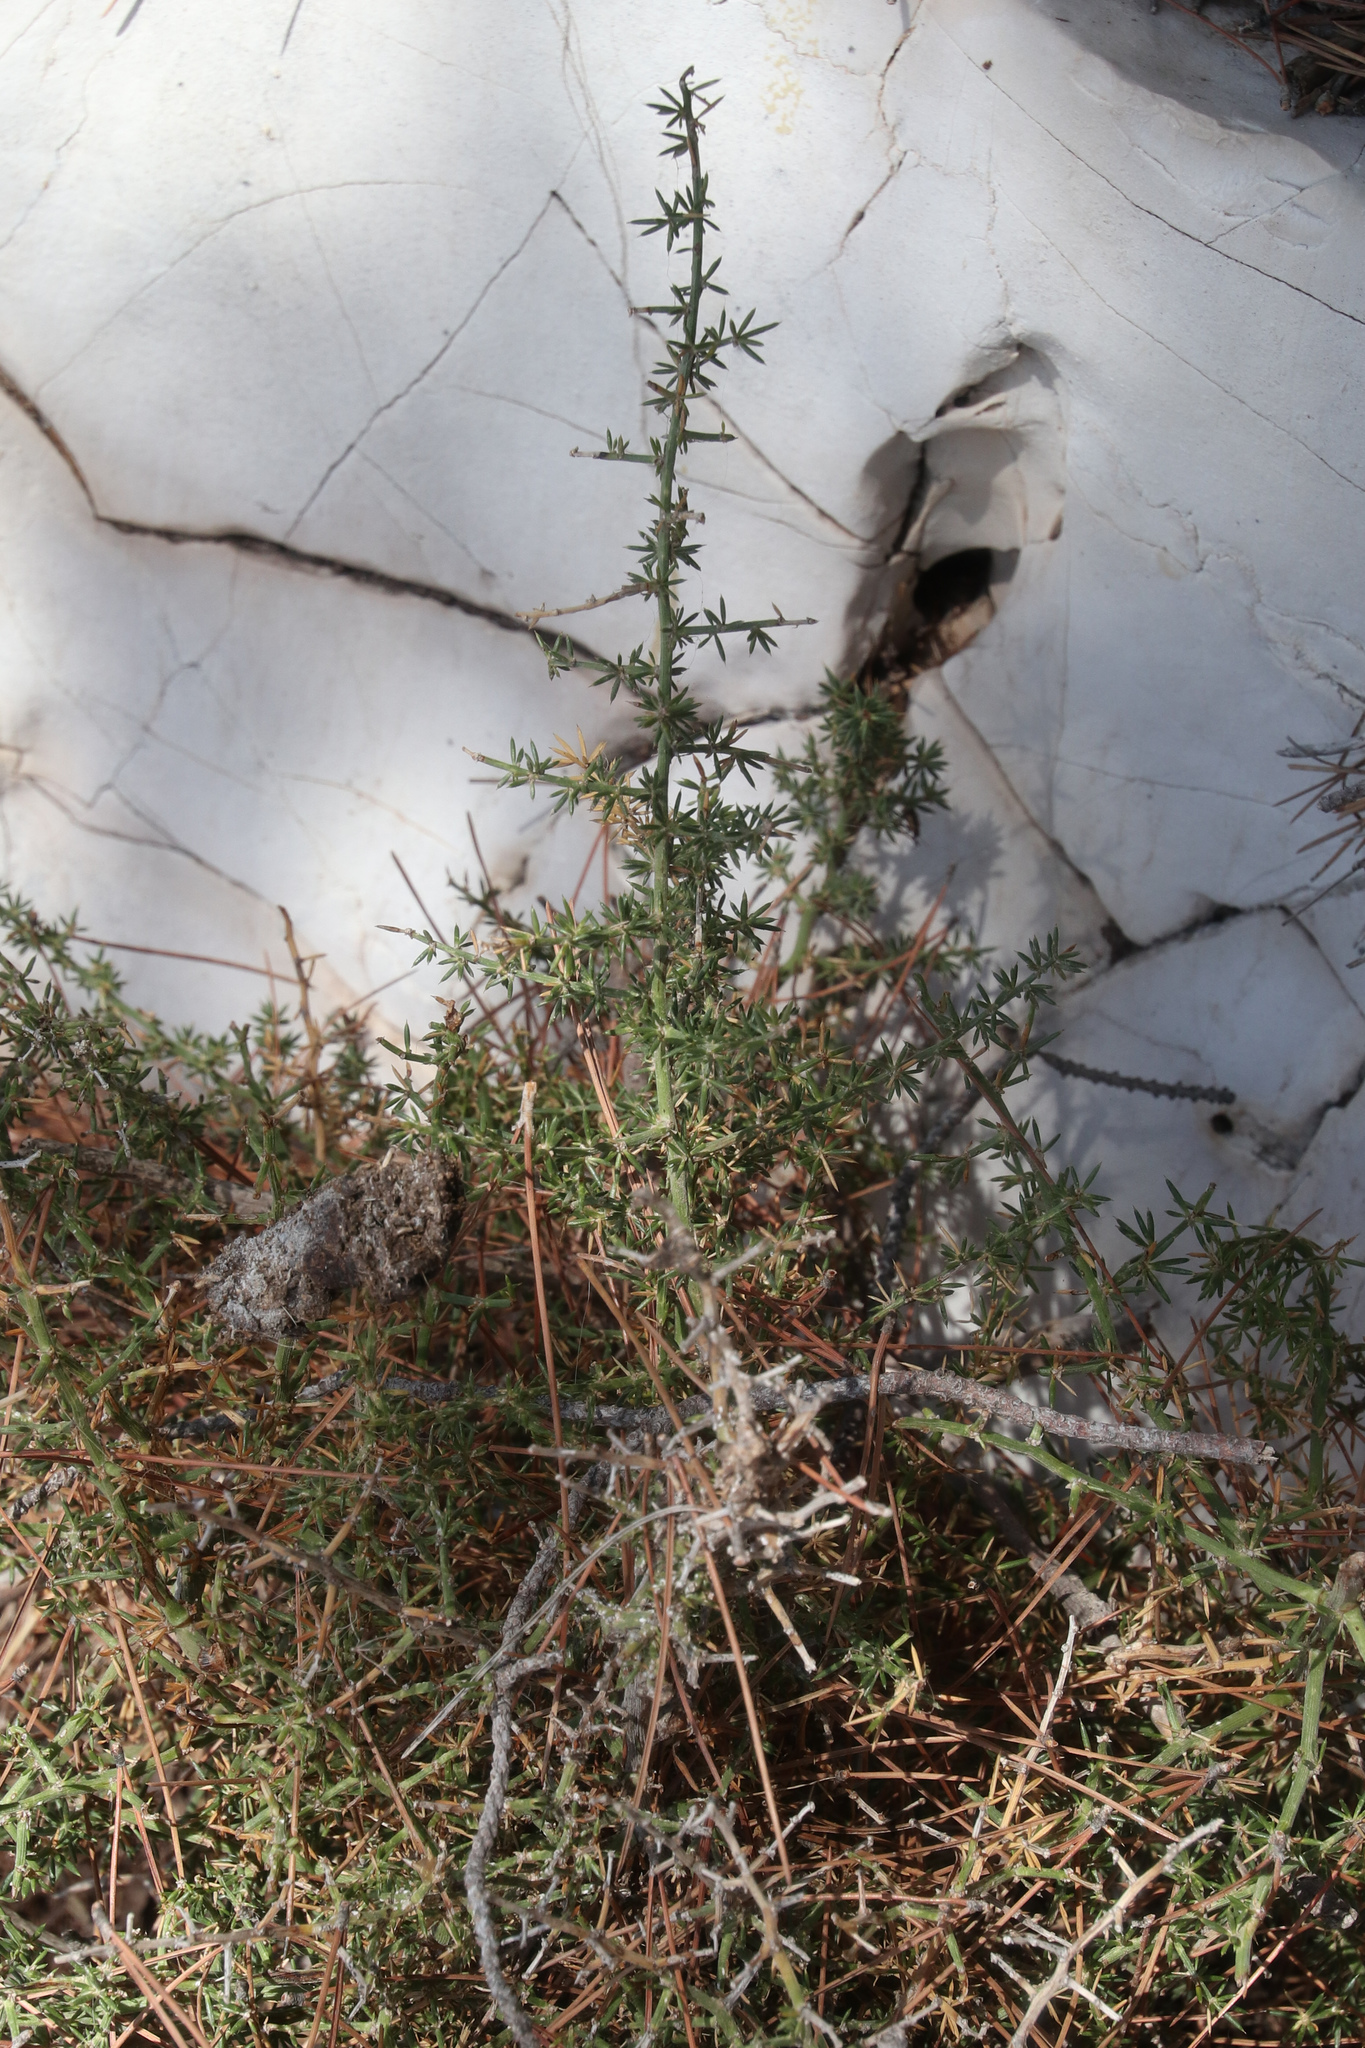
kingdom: Plantae
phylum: Tracheophyta
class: Liliopsida
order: Asparagales
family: Asparagaceae
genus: Asparagus
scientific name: Asparagus acutifolius
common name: Wild asparagus
